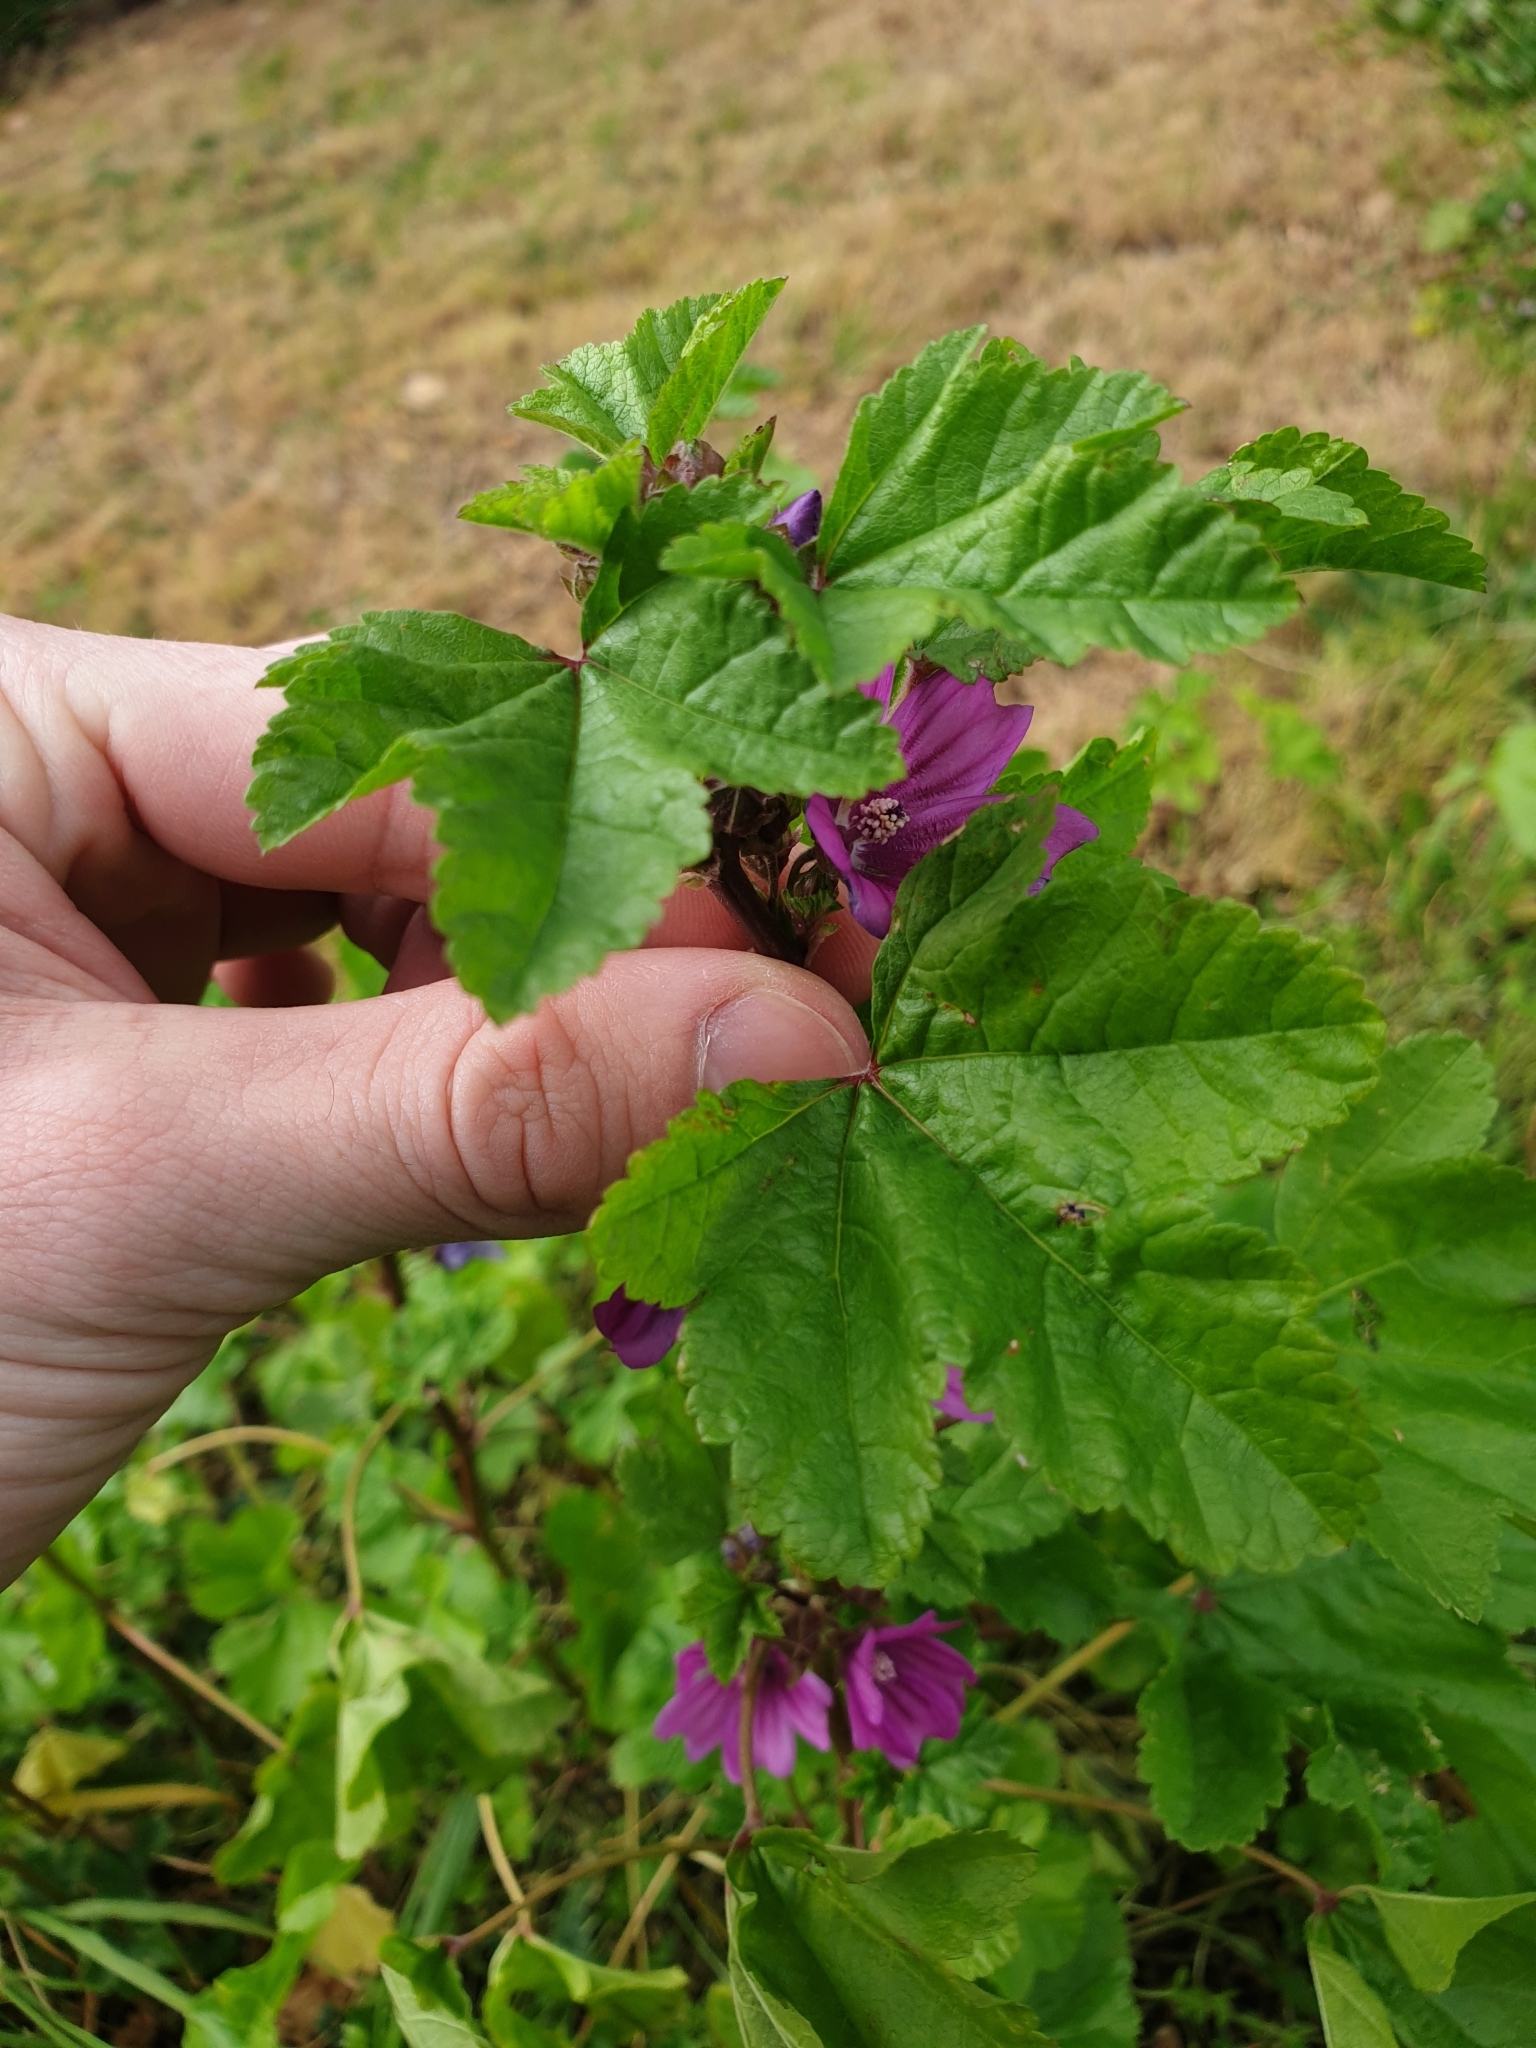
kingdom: Plantae
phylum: Tracheophyta
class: Magnoliopsida
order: Malvales
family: Malvaceae
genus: Malva
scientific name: Malva sylvestris
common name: Common mallow
